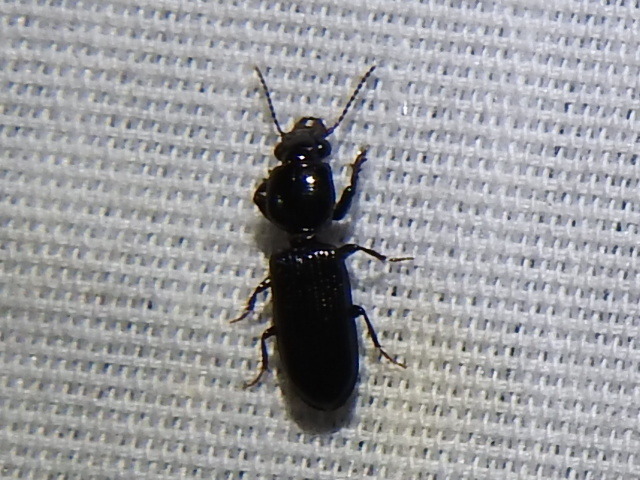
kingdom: Animalia
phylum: Arthropoda
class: Insecta
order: Coleoptera
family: Carabidae
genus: Semiclivina
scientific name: Semiclivina dentipes
